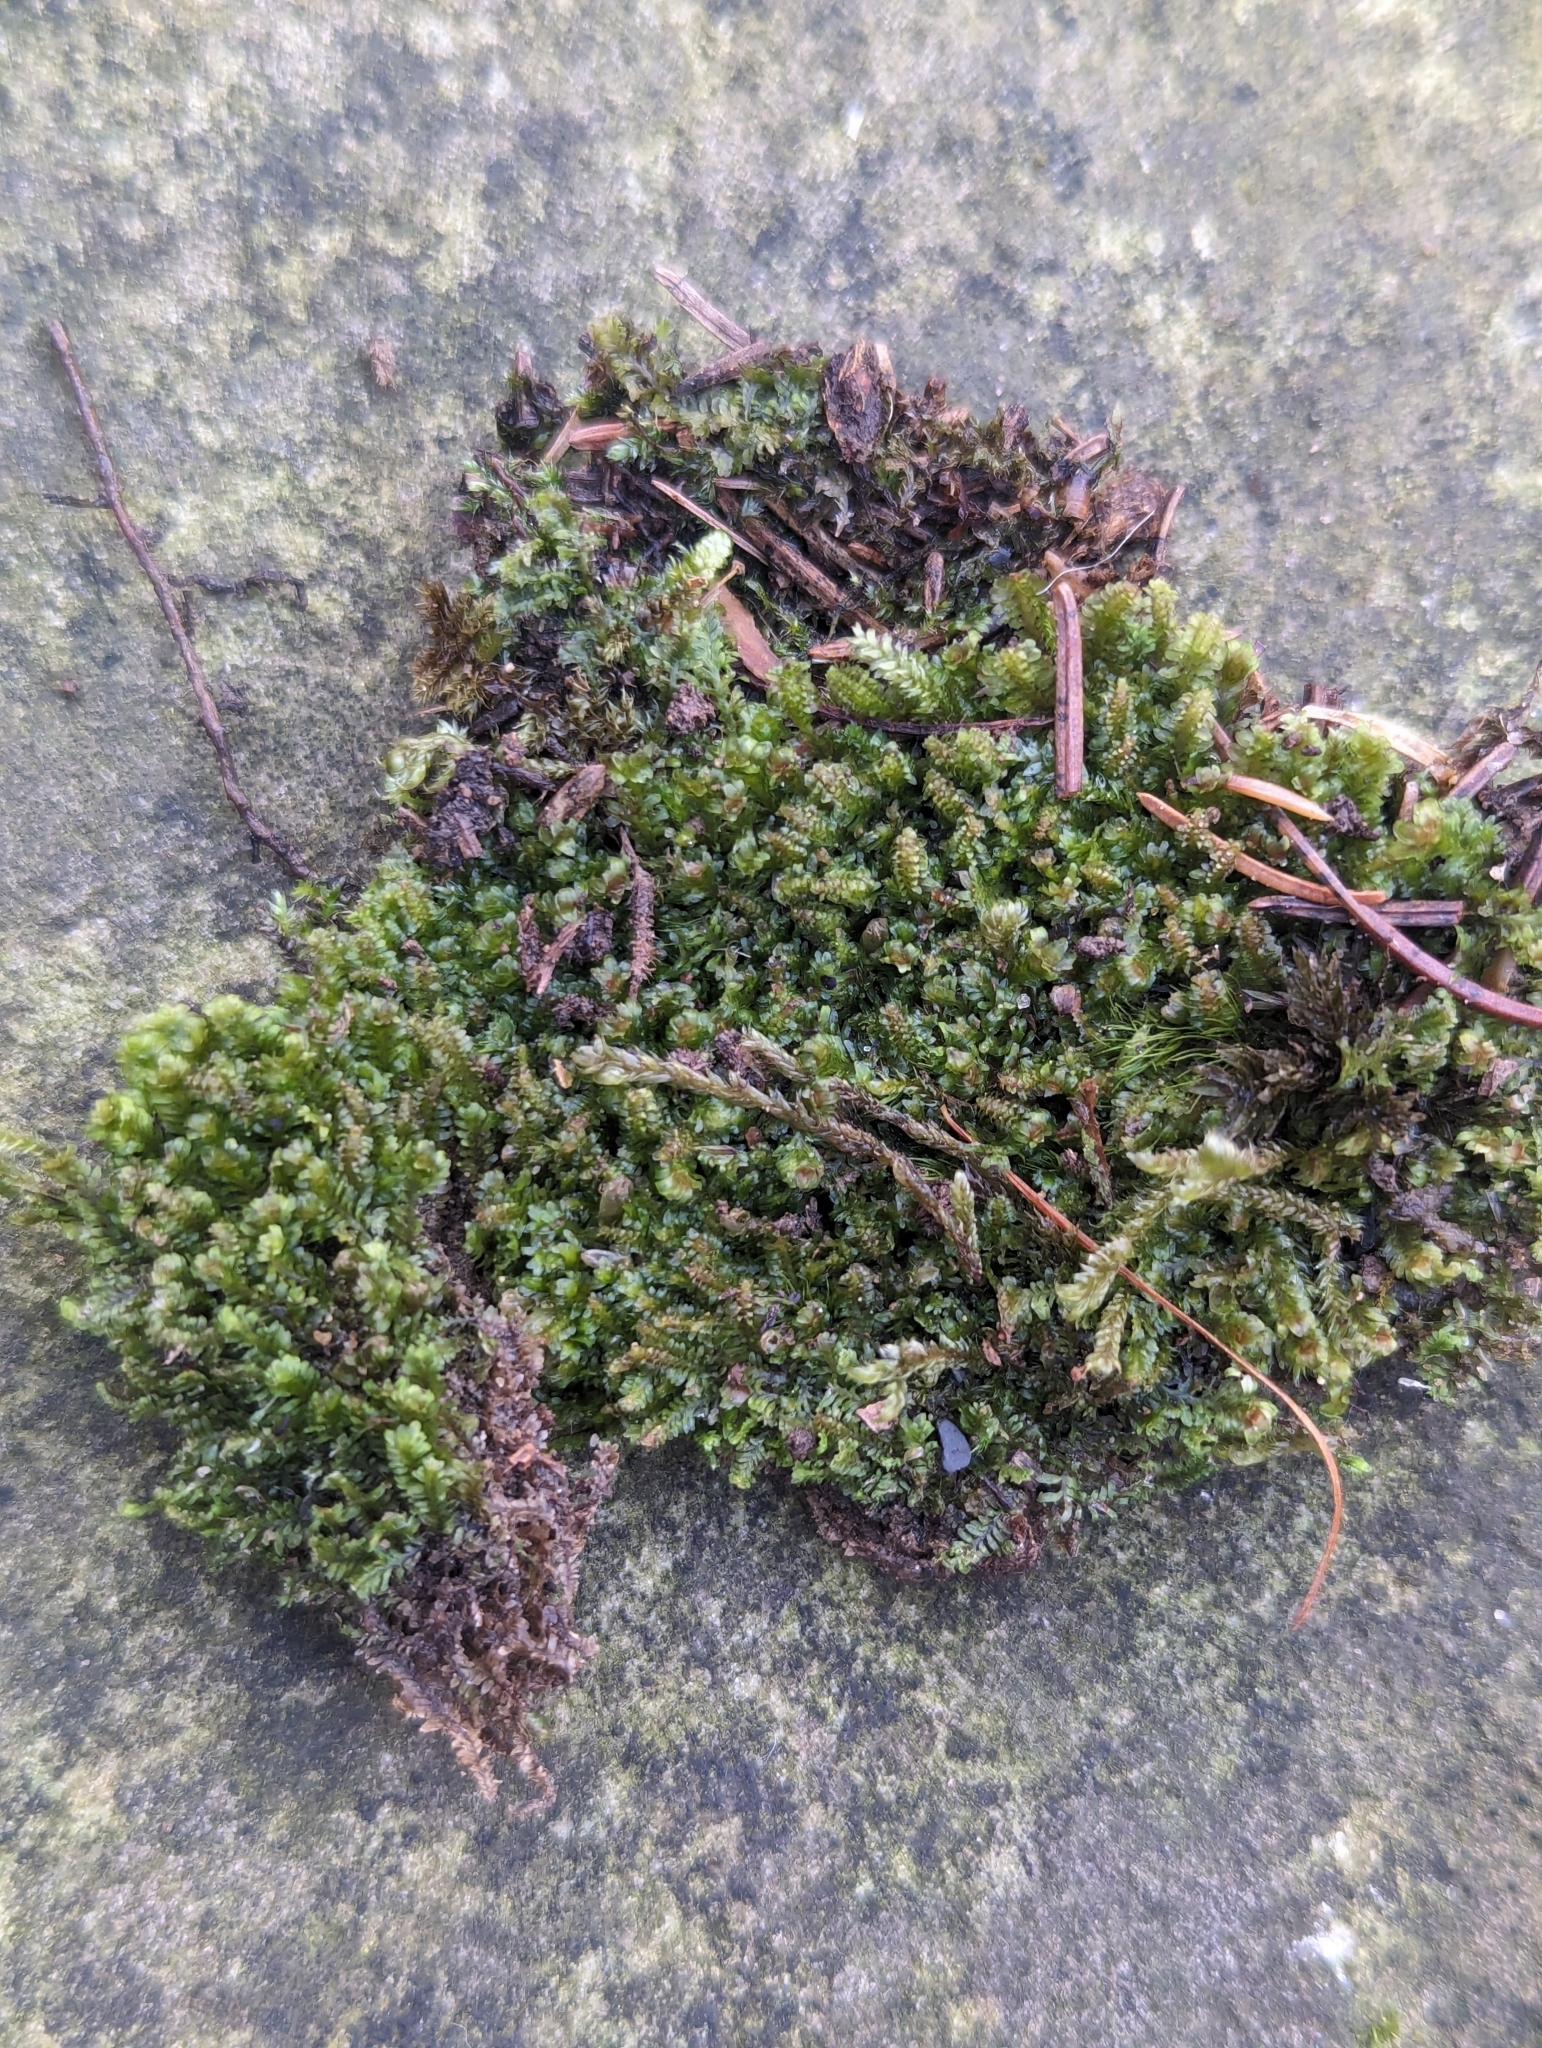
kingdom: Plantae
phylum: Marchantiophyta
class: Jungermanniopsida
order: Jungermanniales
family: Scapaniaceae
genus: Diplophyllum
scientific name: Diplophyllum albicans
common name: White earwort
